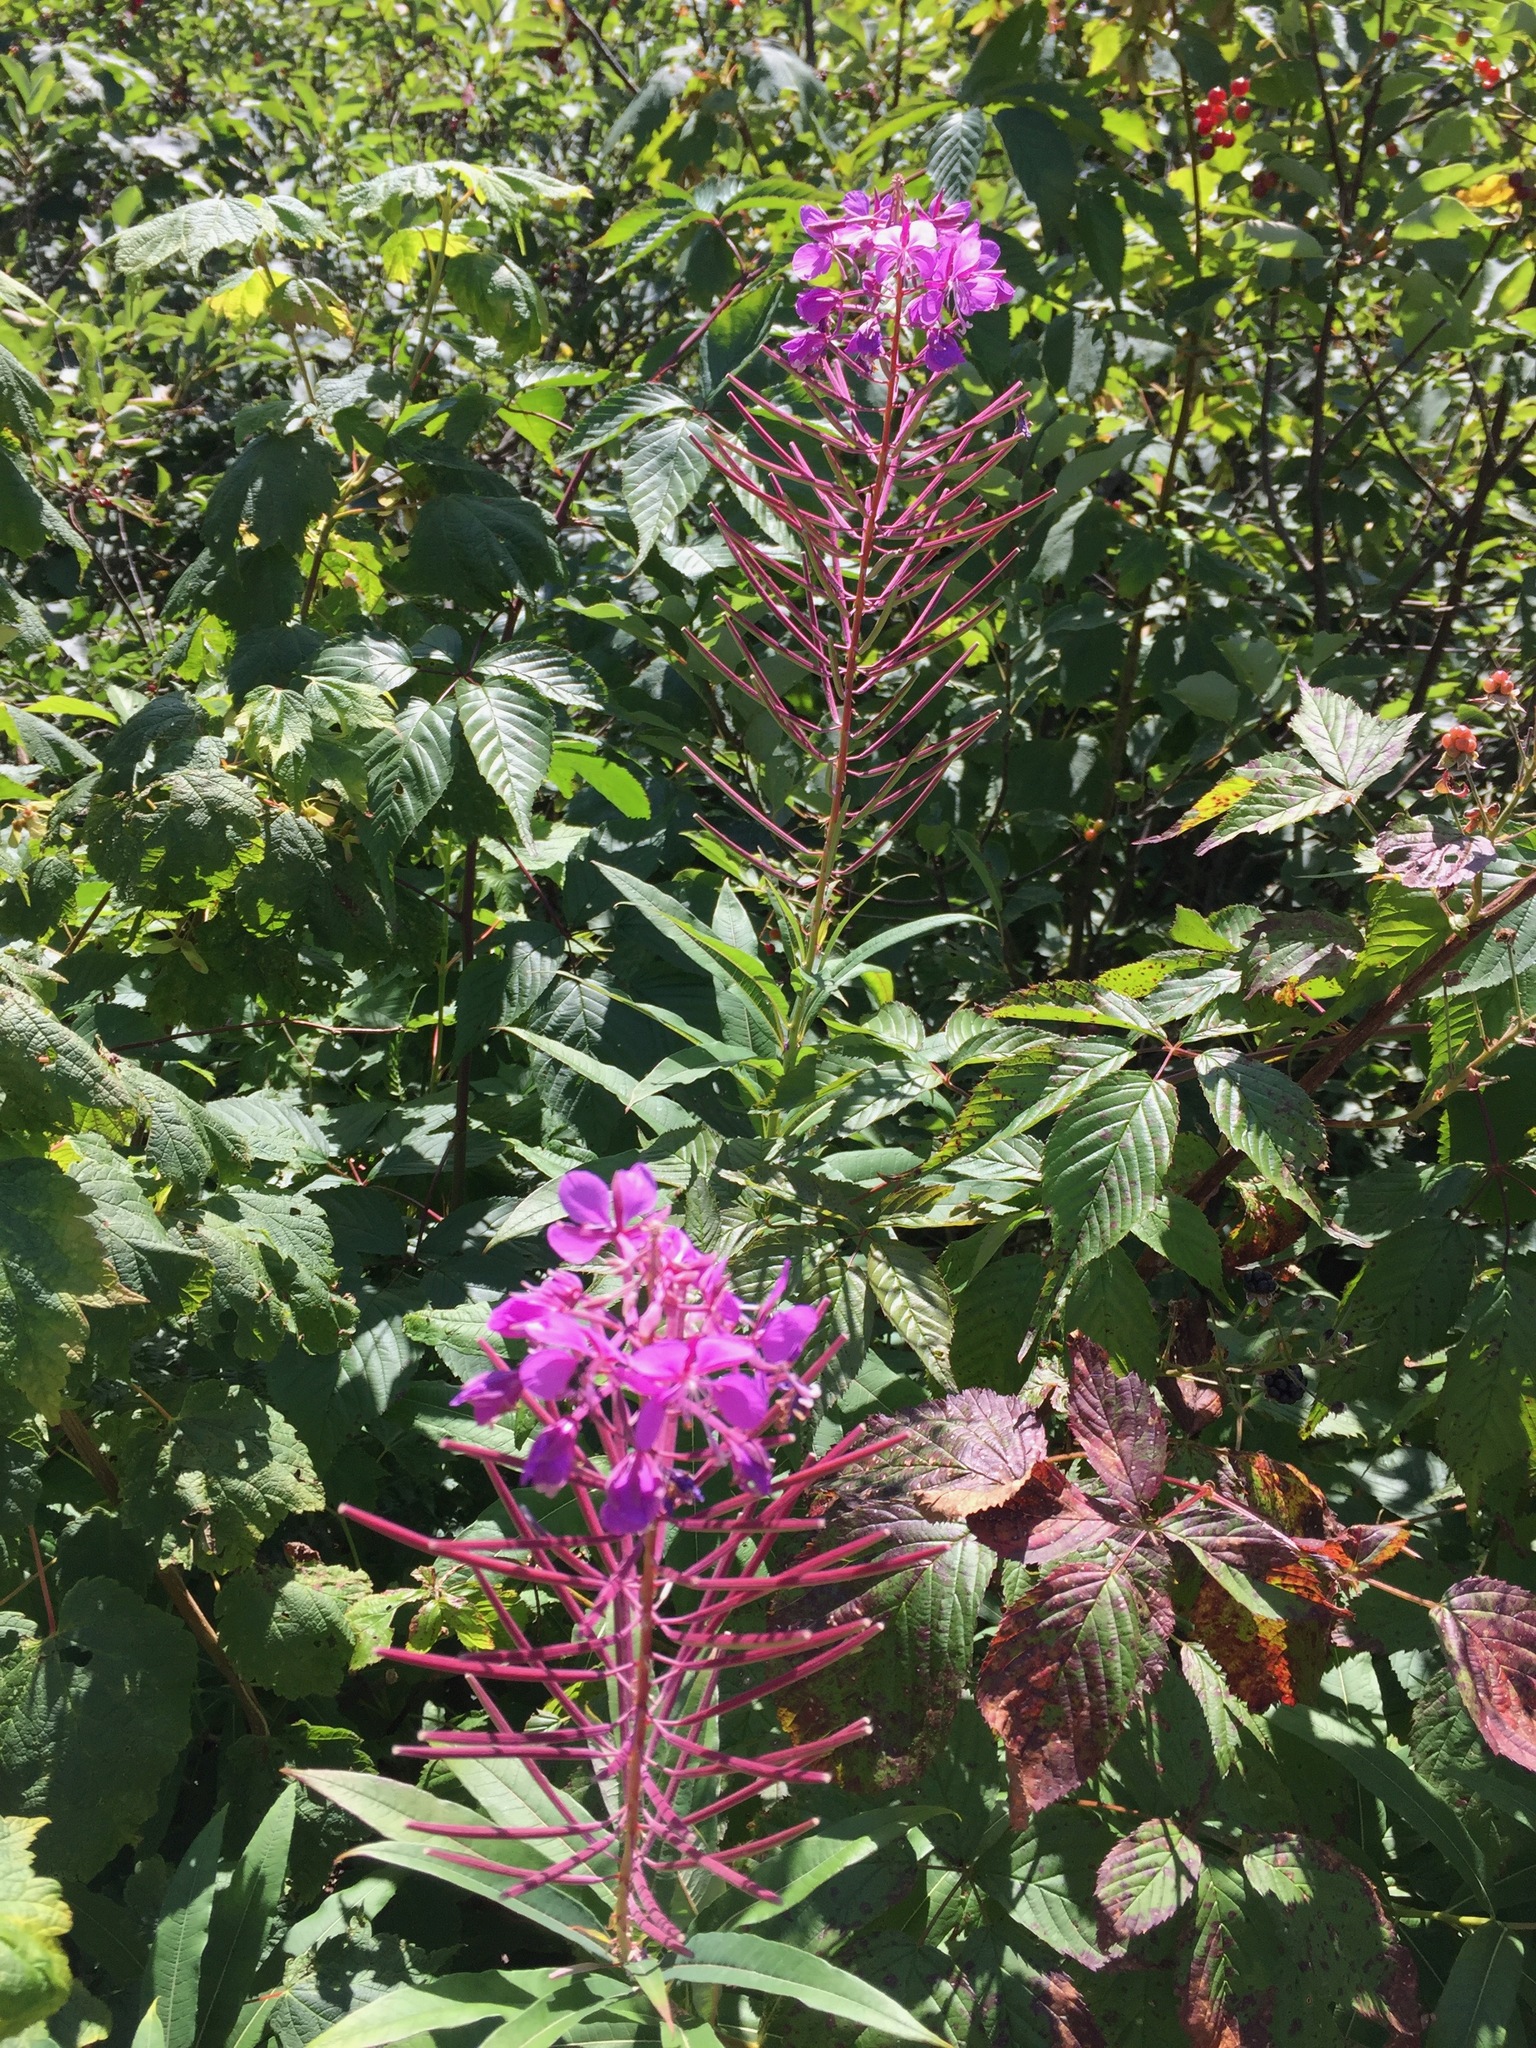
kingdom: Plantae
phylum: Tracheophyta
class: Magnoliopsida
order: Myrtales
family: Onagraceae
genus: Chamaenerion
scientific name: Chamaenerion angustifolium
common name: Fireweed
